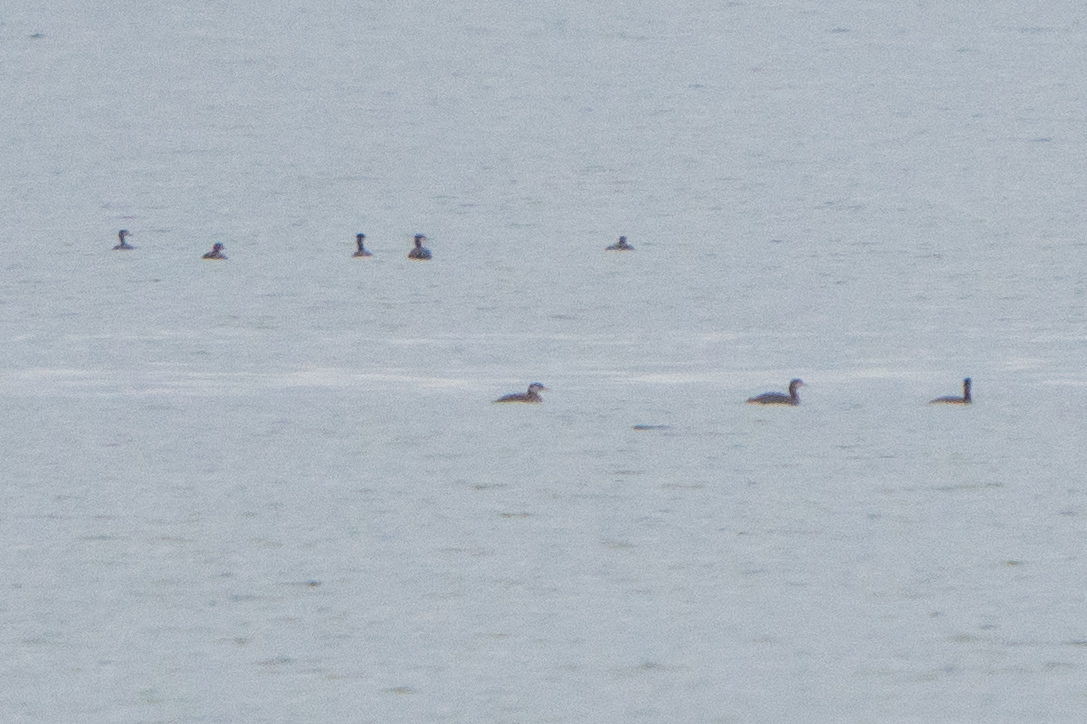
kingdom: Animalia
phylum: Chordata
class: Aves
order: Podicipediformes
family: Podicipedidae
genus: Podiceps
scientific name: Podiceps grisegena
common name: Red-necked grebe
